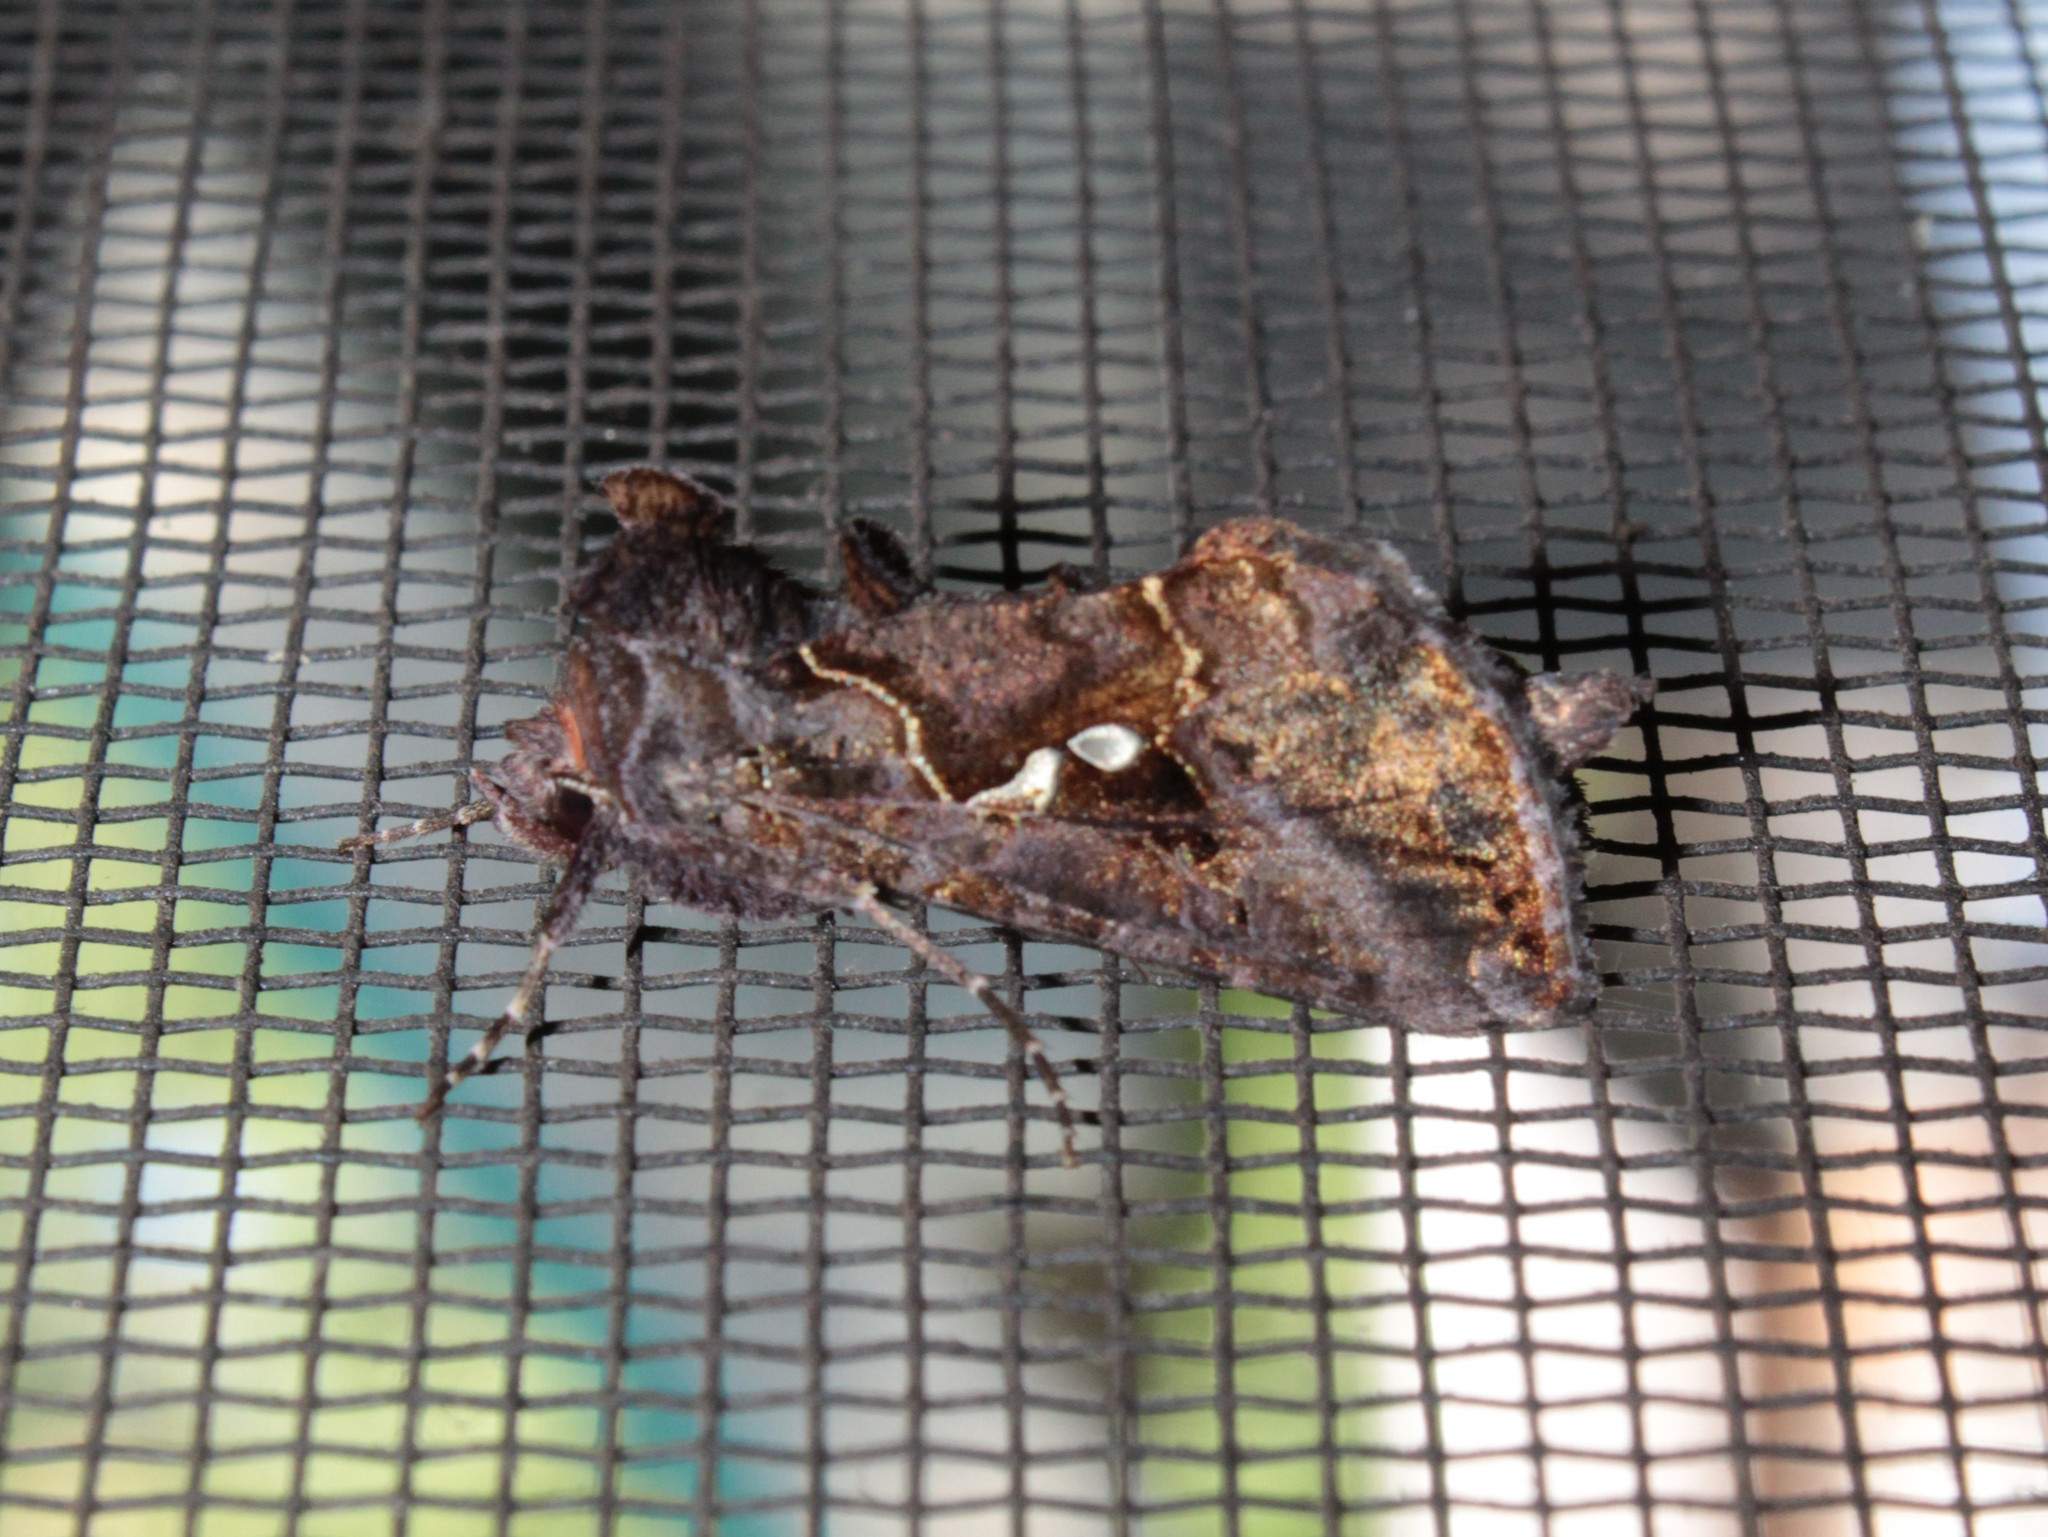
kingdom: Animalia
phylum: Arthropoda
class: Insecta
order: Lepidoptera
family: Noctuidae
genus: Autographa
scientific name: Autographa precationis
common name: Common looper moth
